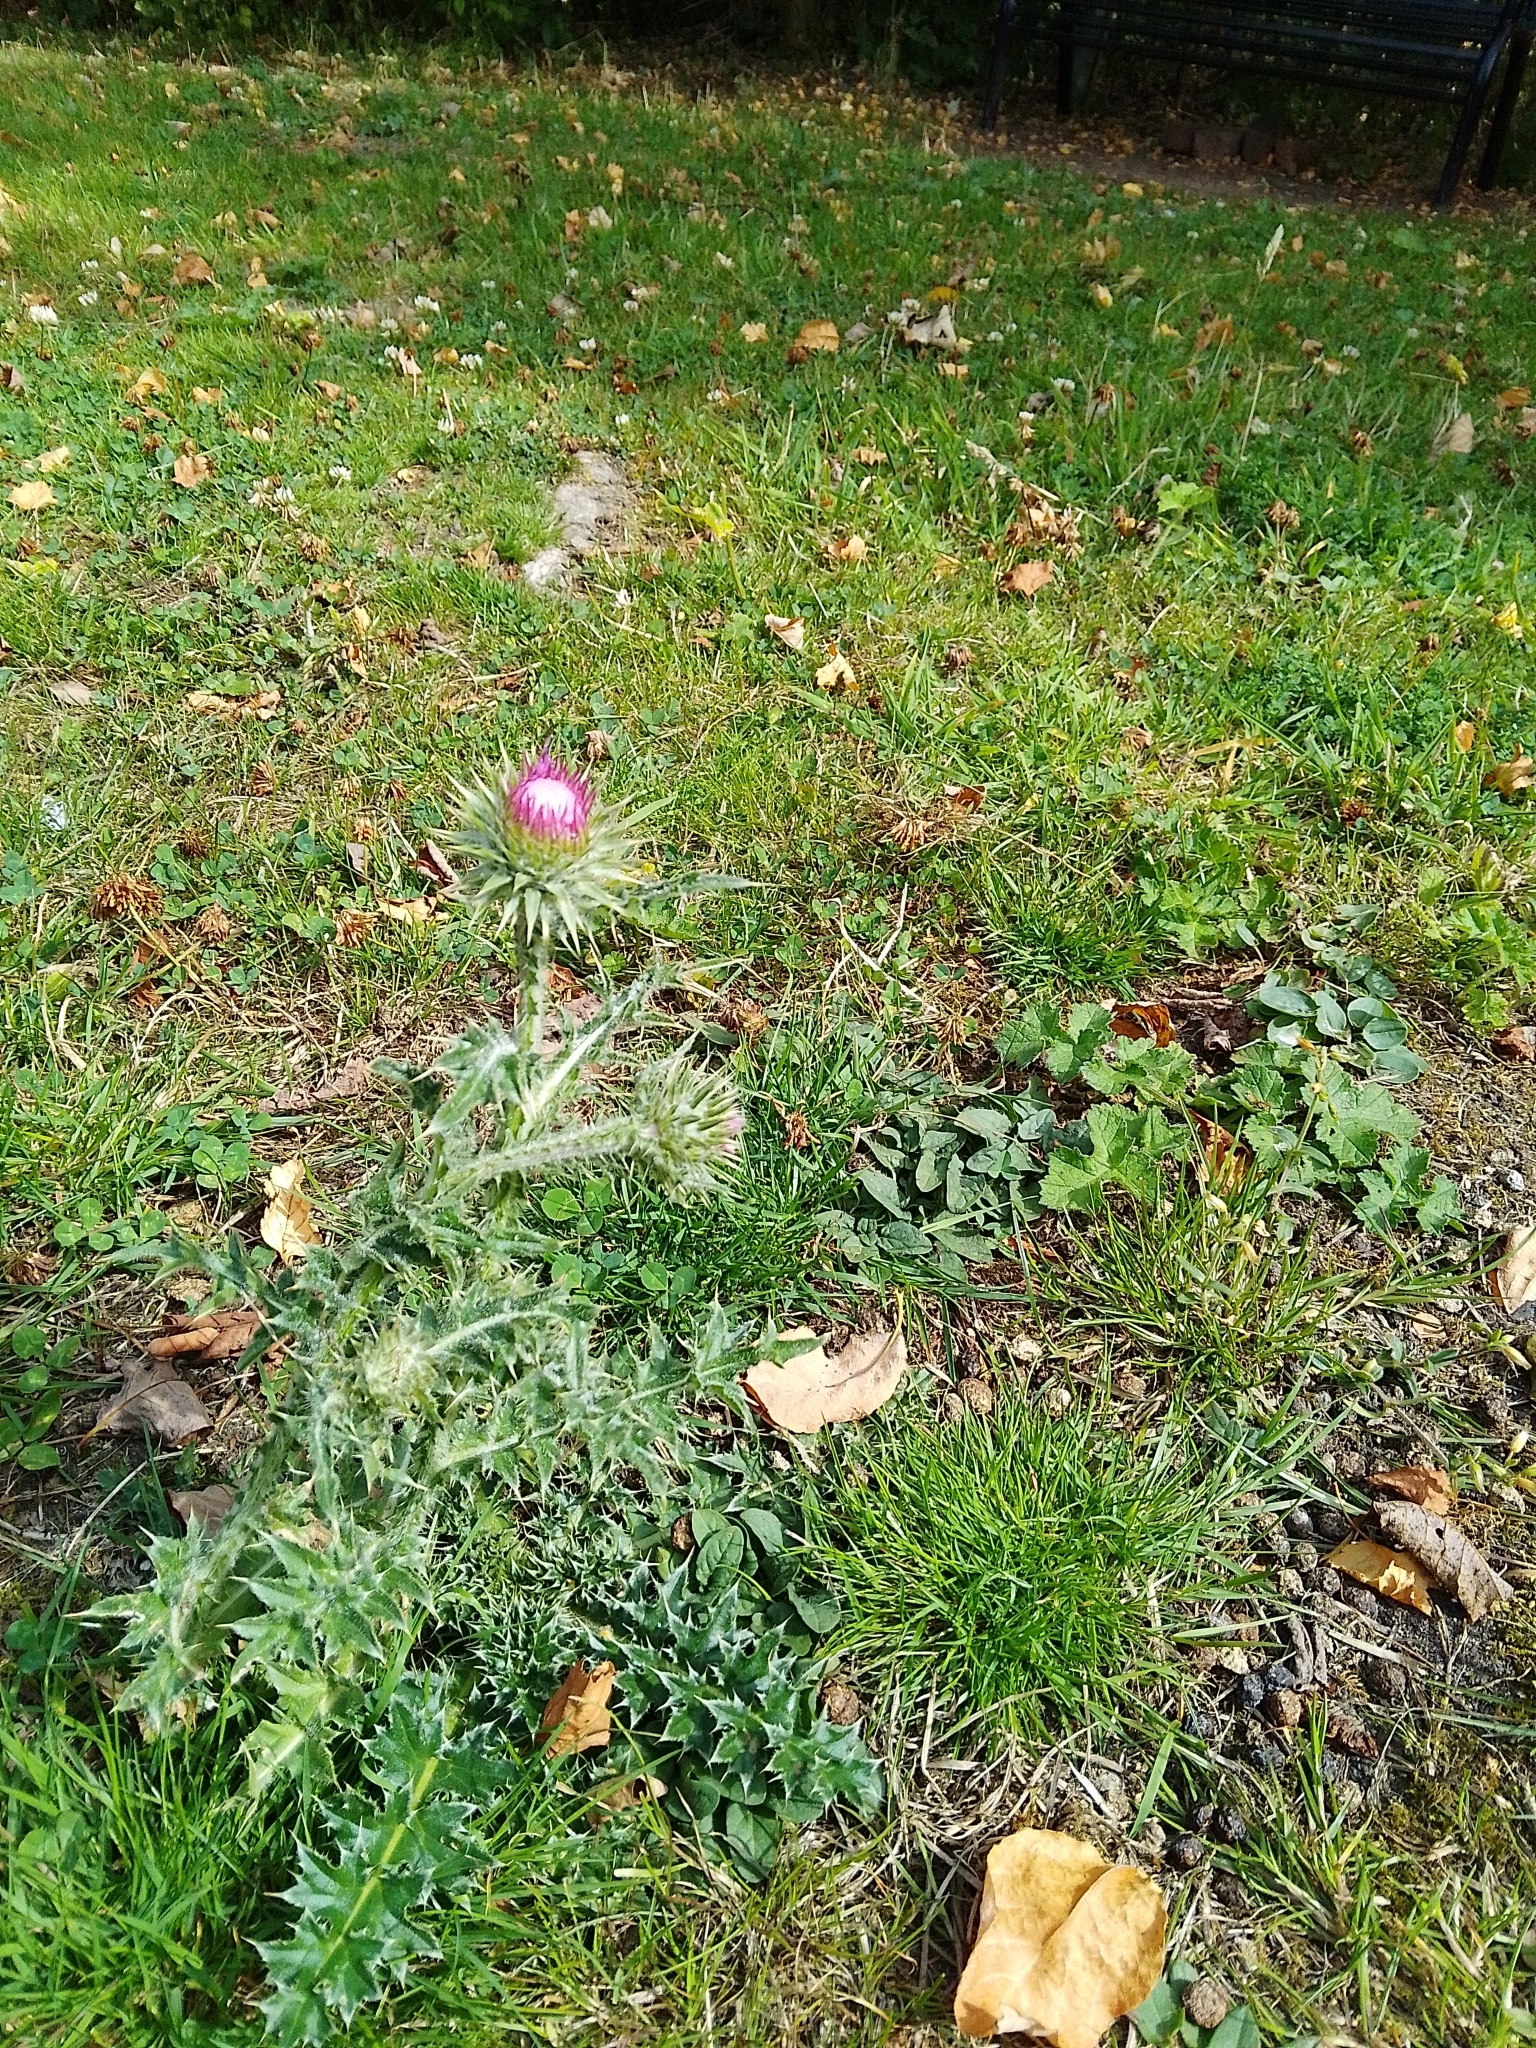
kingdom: Plantae
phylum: Tracheophyta
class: Magnoliopsida
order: Asterales
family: Asteraceae
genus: Carduus
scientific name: Carduus nutans
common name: Musk thistle
